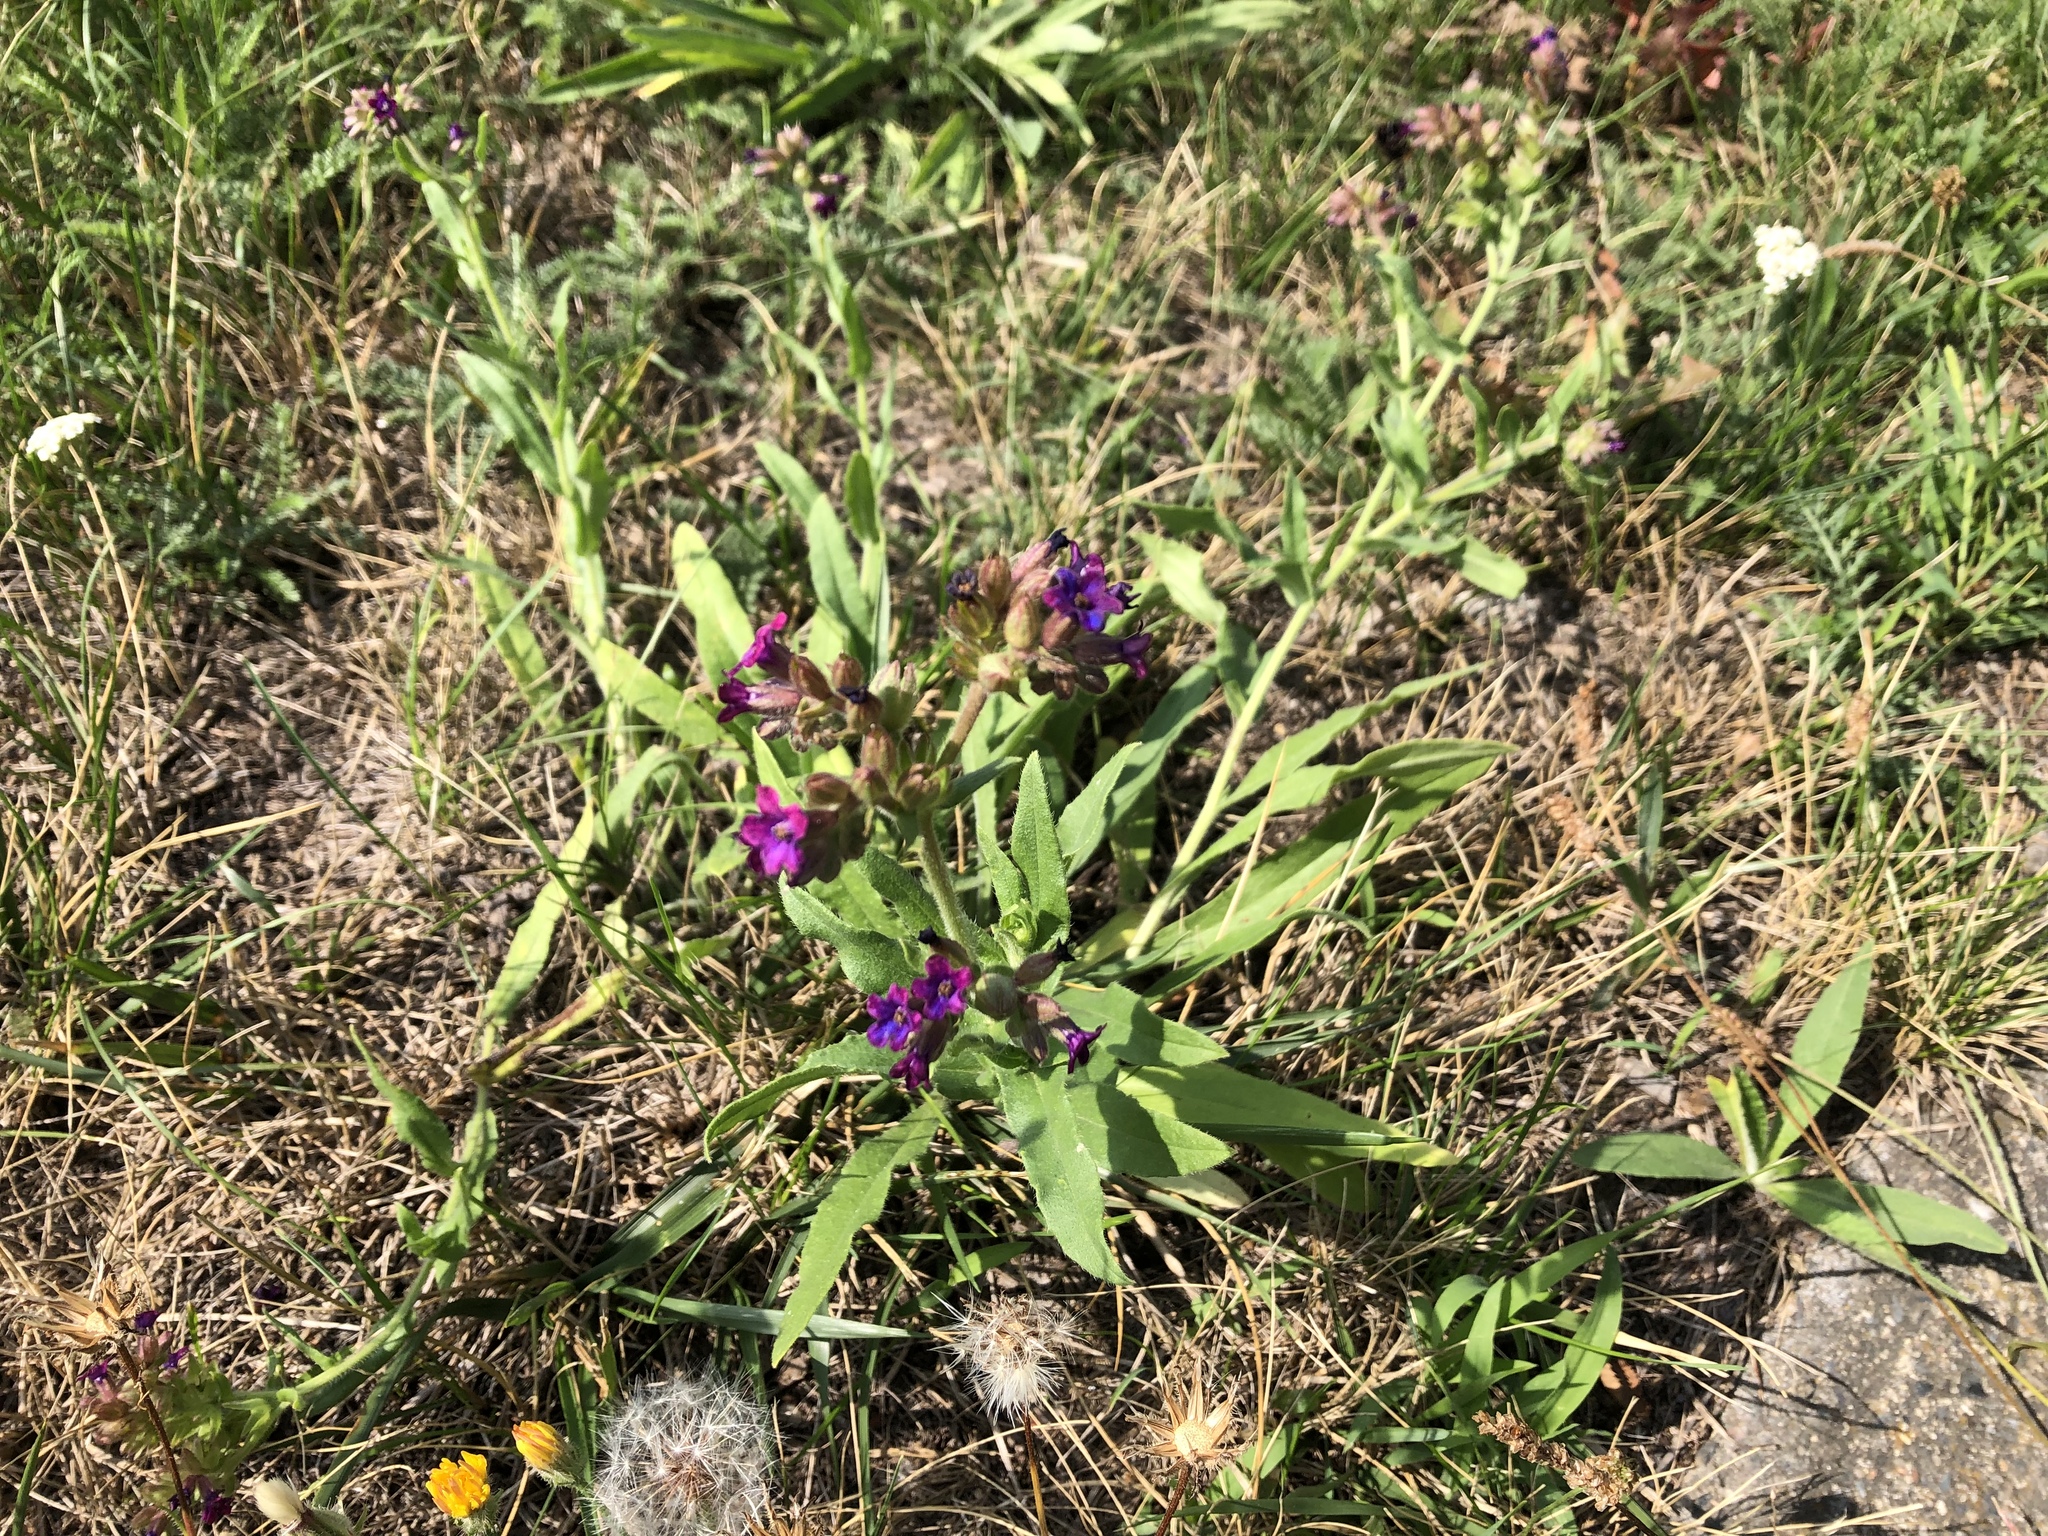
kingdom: Plantae
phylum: Tracheophyta
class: Magnoliopsida
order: Boraginales
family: Boraginaceae
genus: Anchusa
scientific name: Anchusa officinalis
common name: Alkanet
